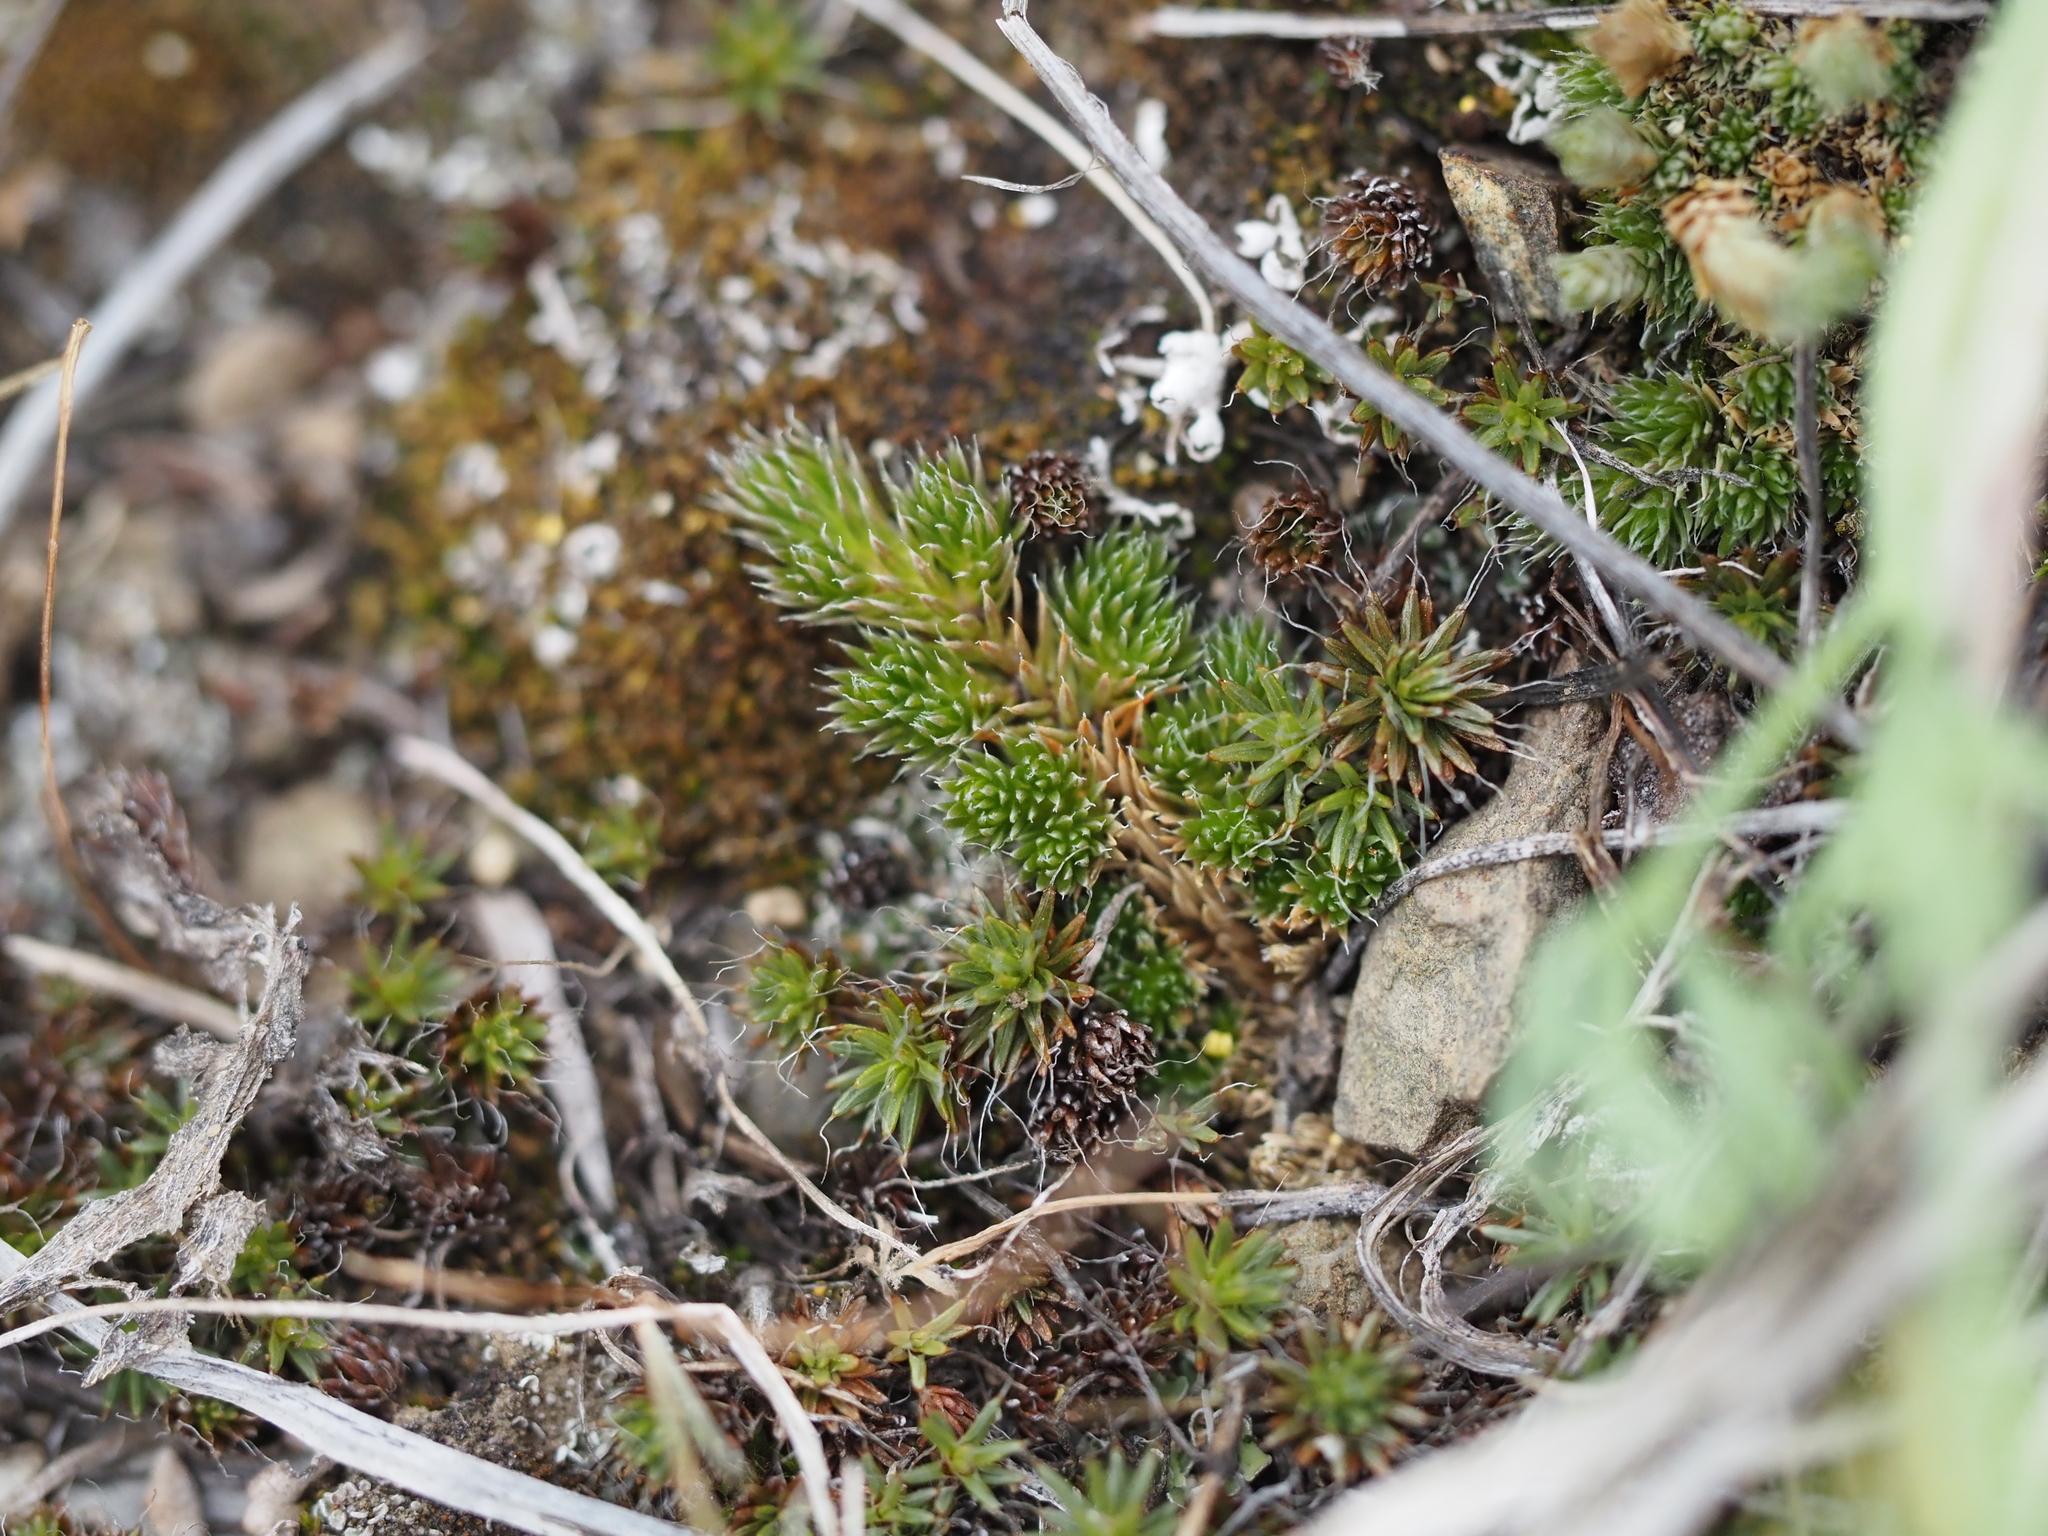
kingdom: Plantae
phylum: Tracheophyta
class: Lycopodiopsida
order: Selaginellales
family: Selaginellaceae
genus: Selaginella
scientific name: Selaginella densa
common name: Mountain spike-moss
